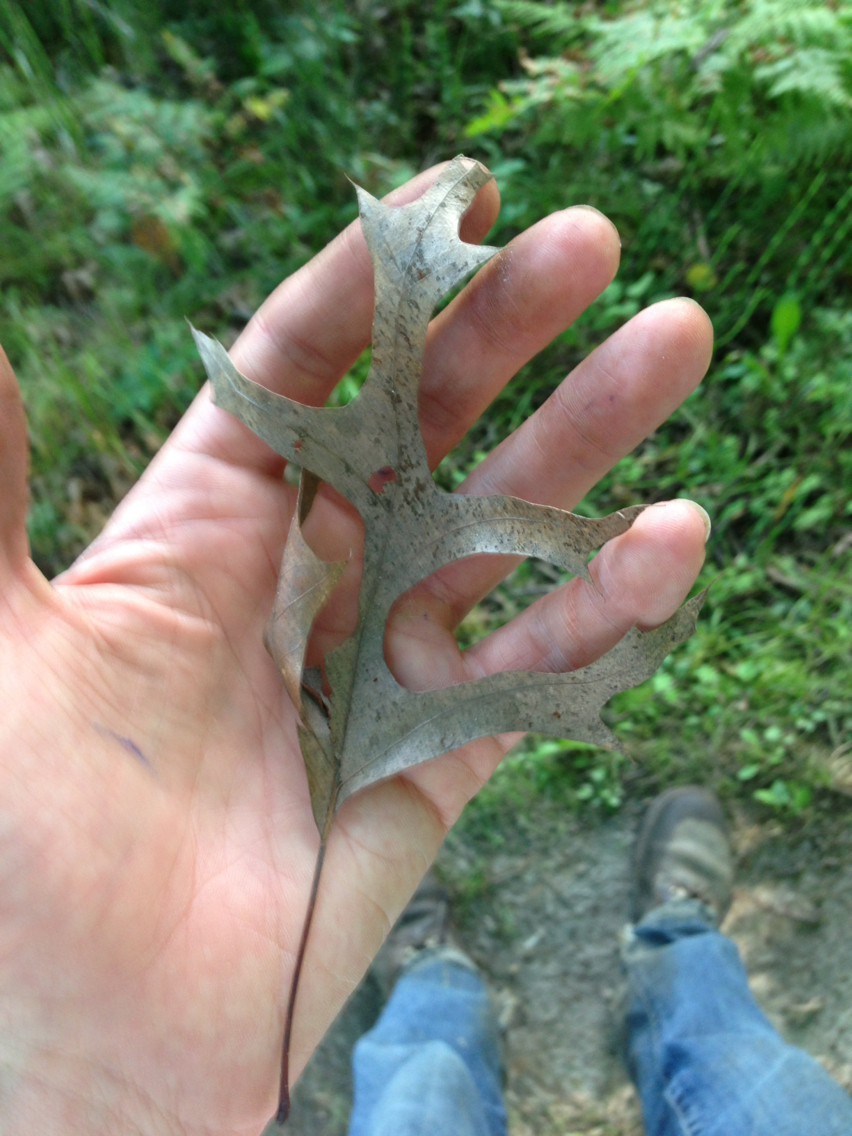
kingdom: Plantae
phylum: Tracheophyta
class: Magnoliopsida
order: Fagales
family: Fagaceae
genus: Quercus
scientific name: Quercus coccinea
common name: Scarlet oak
